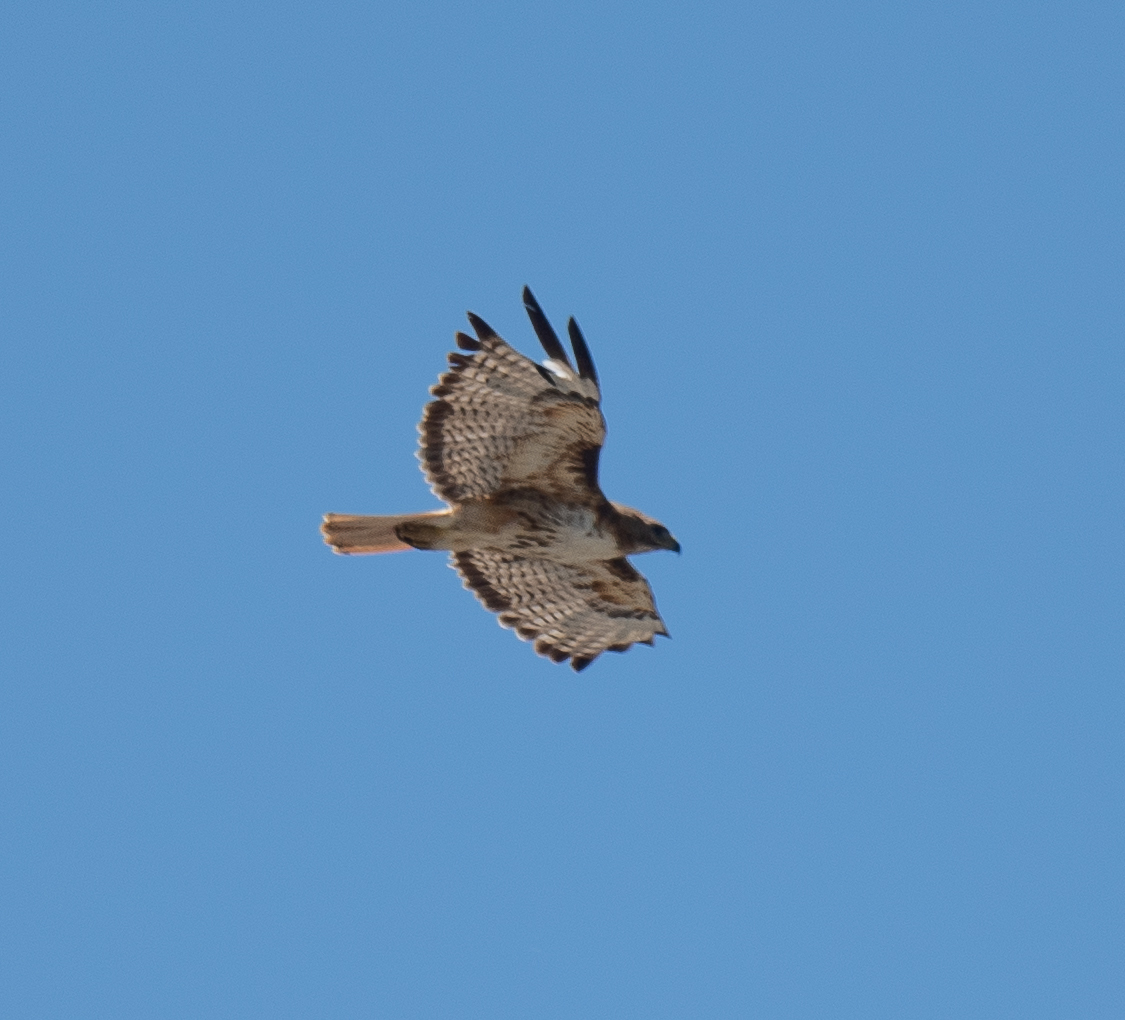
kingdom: Animalia
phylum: Chordata
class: Aves
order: Accipitriformes
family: Accipitridae
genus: Buteo
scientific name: Buteo jamaicensis
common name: Red-tailed hawk
